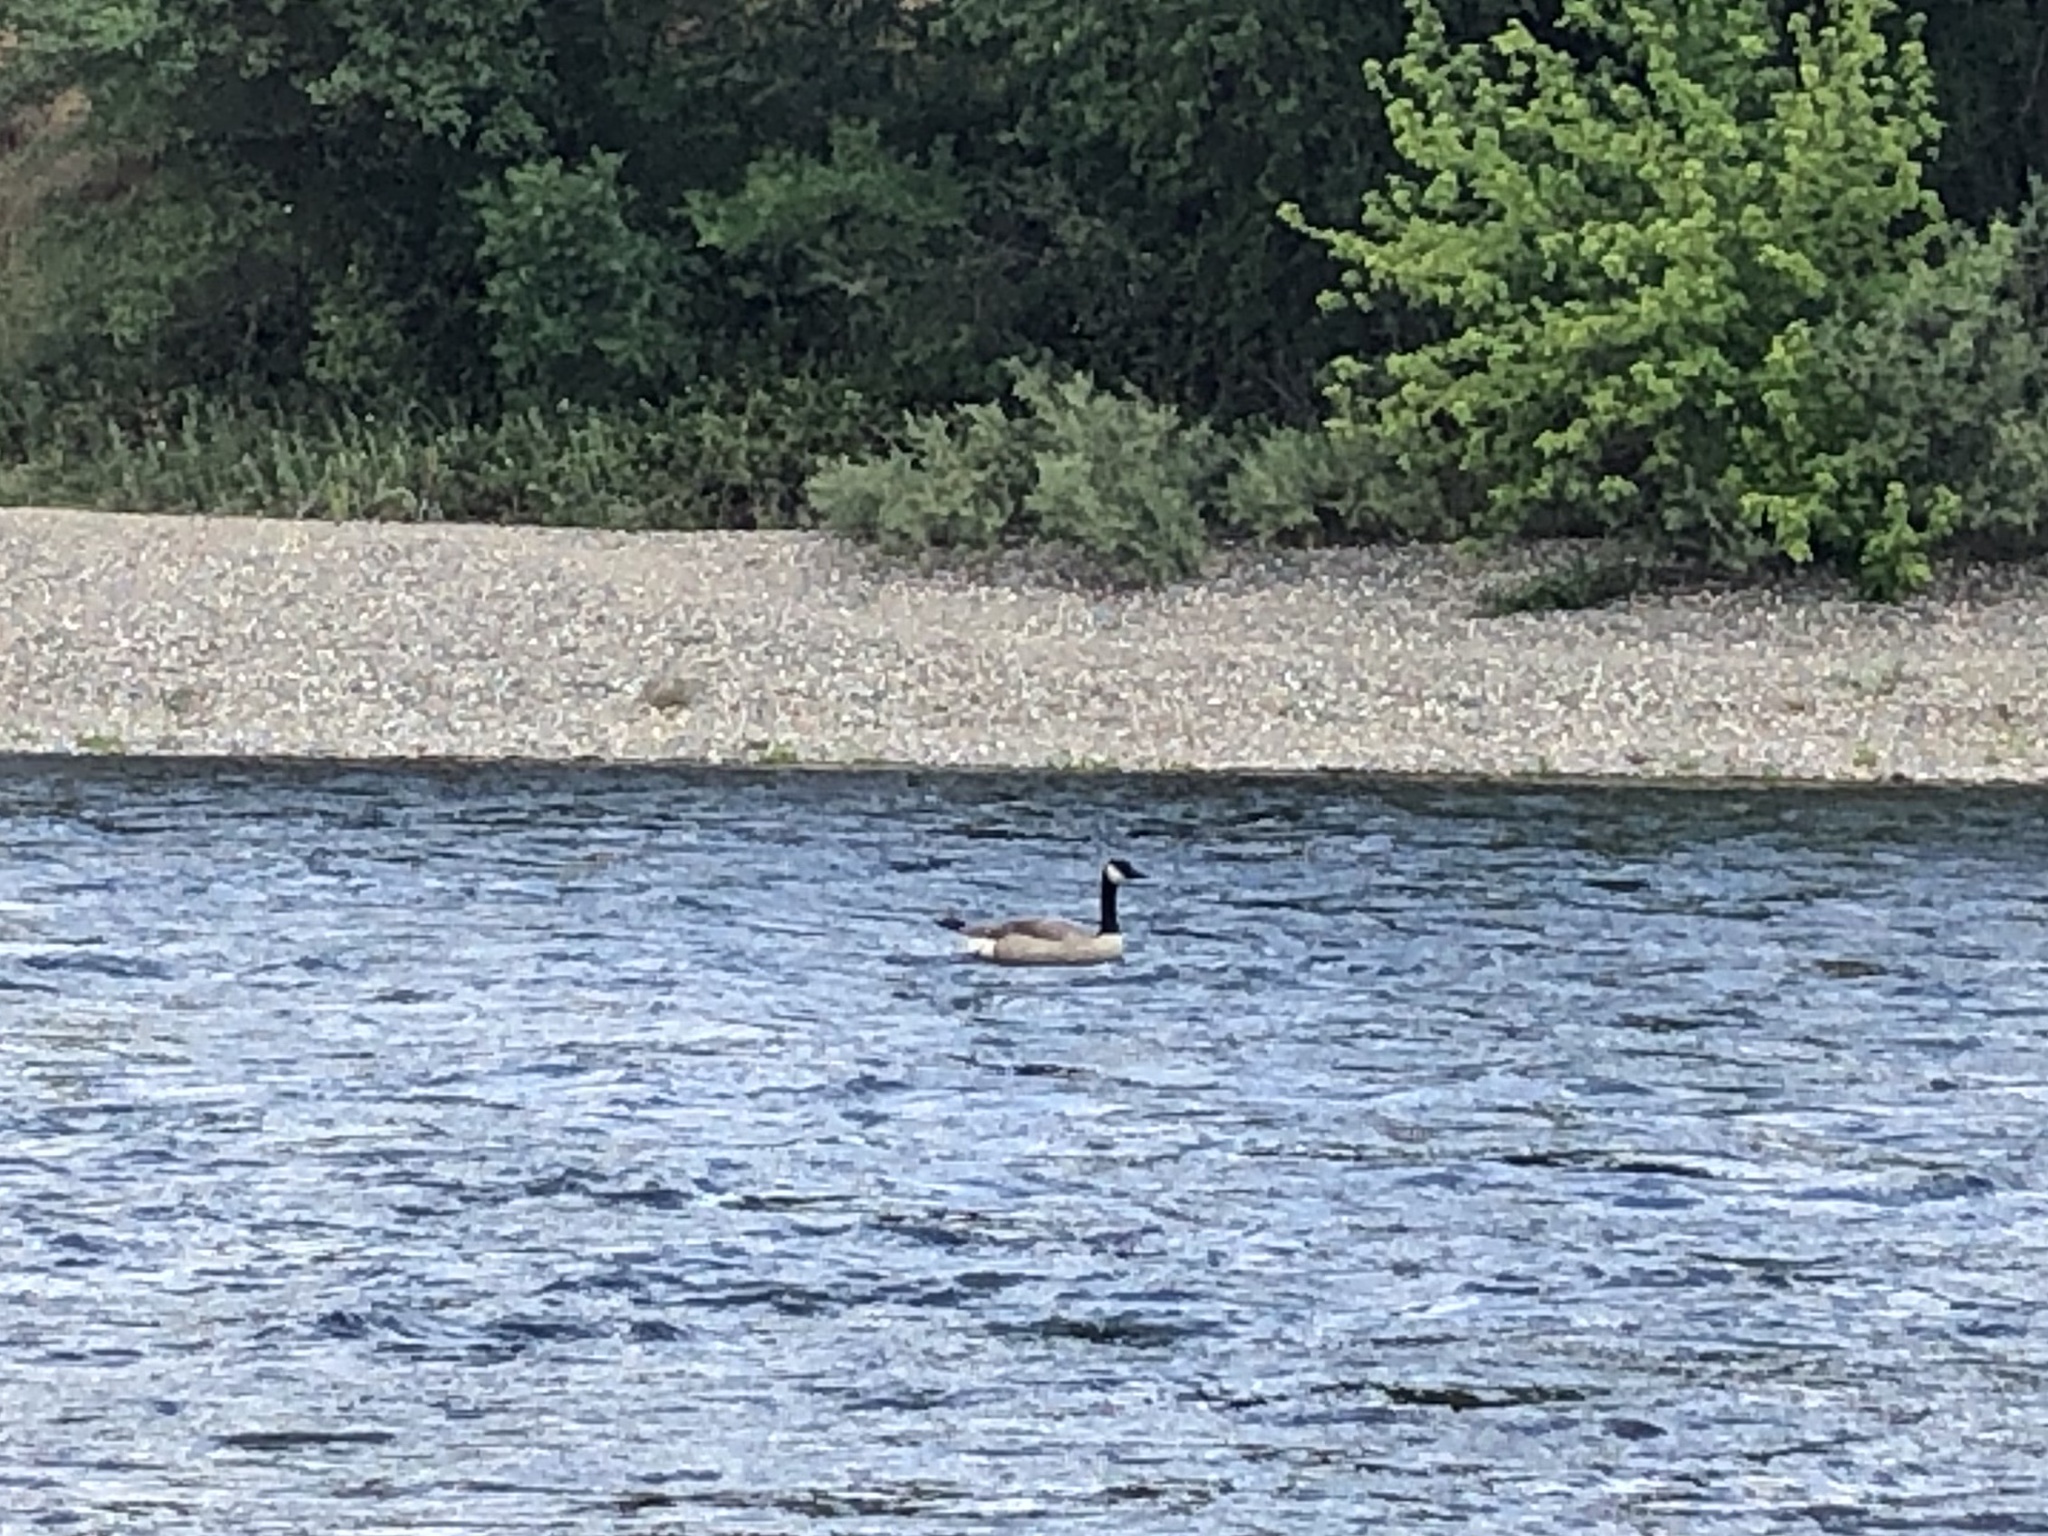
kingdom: Animalia
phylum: Chordata
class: Aves
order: Anseriformes
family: Anatidae
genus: Branta
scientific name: Branta canadensis
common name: Canada goose
